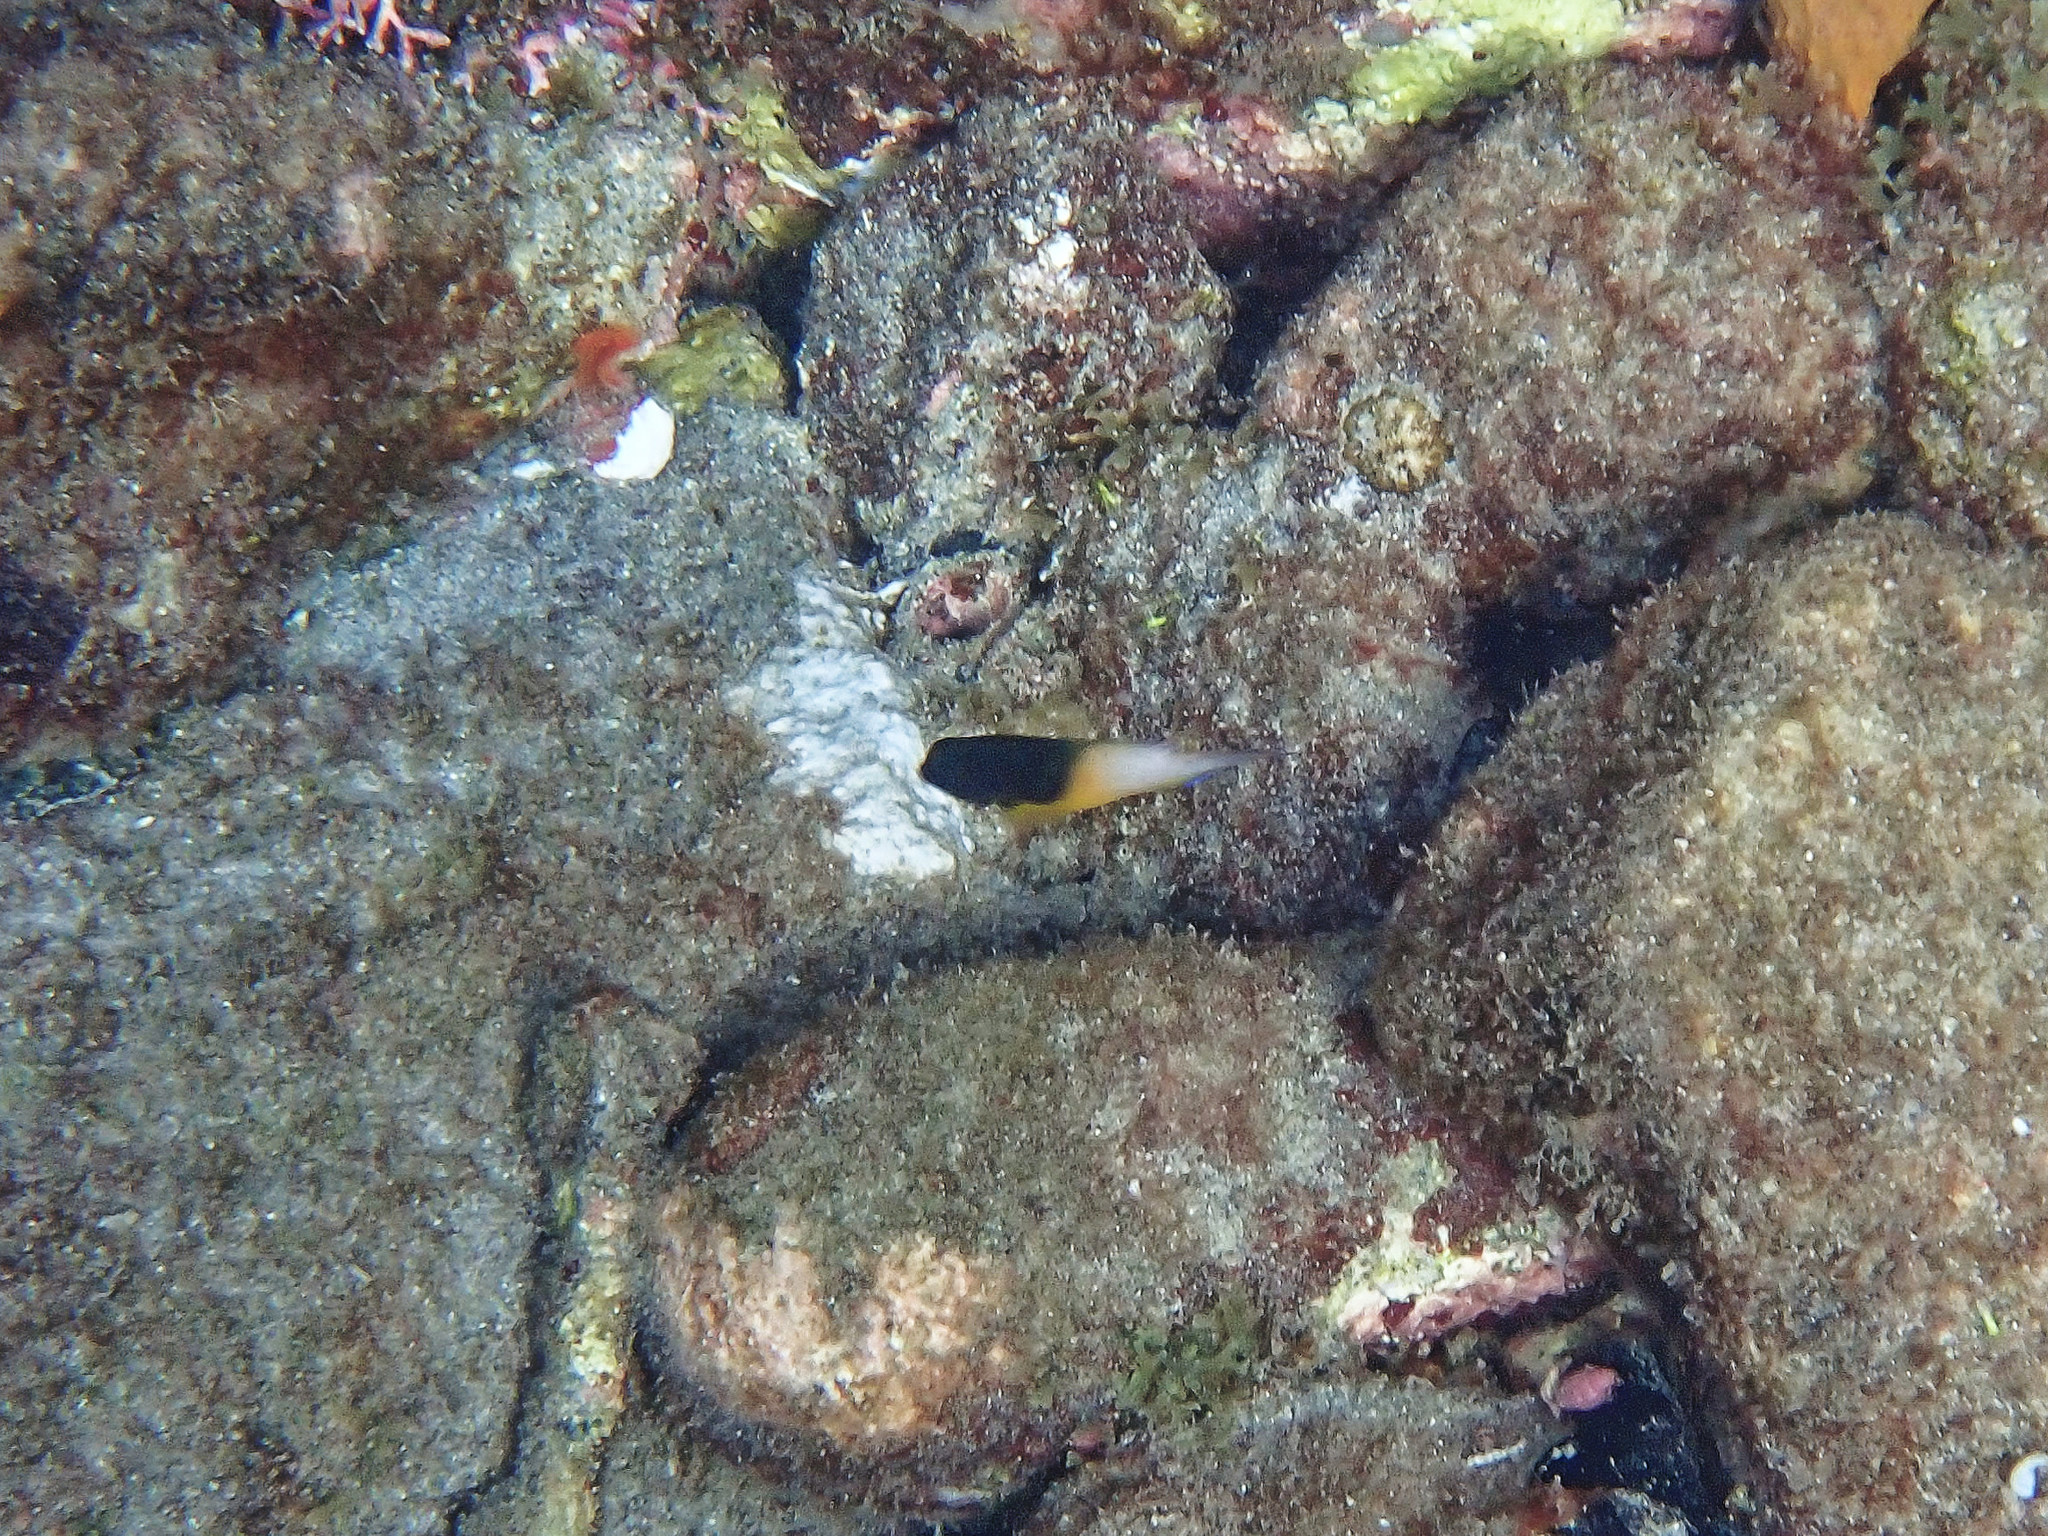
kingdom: Animalia
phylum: Chordata
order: Perciformes
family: Pomacentridae
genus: Stegastes
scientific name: Stegastes partitus
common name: Bicolor damselfish
